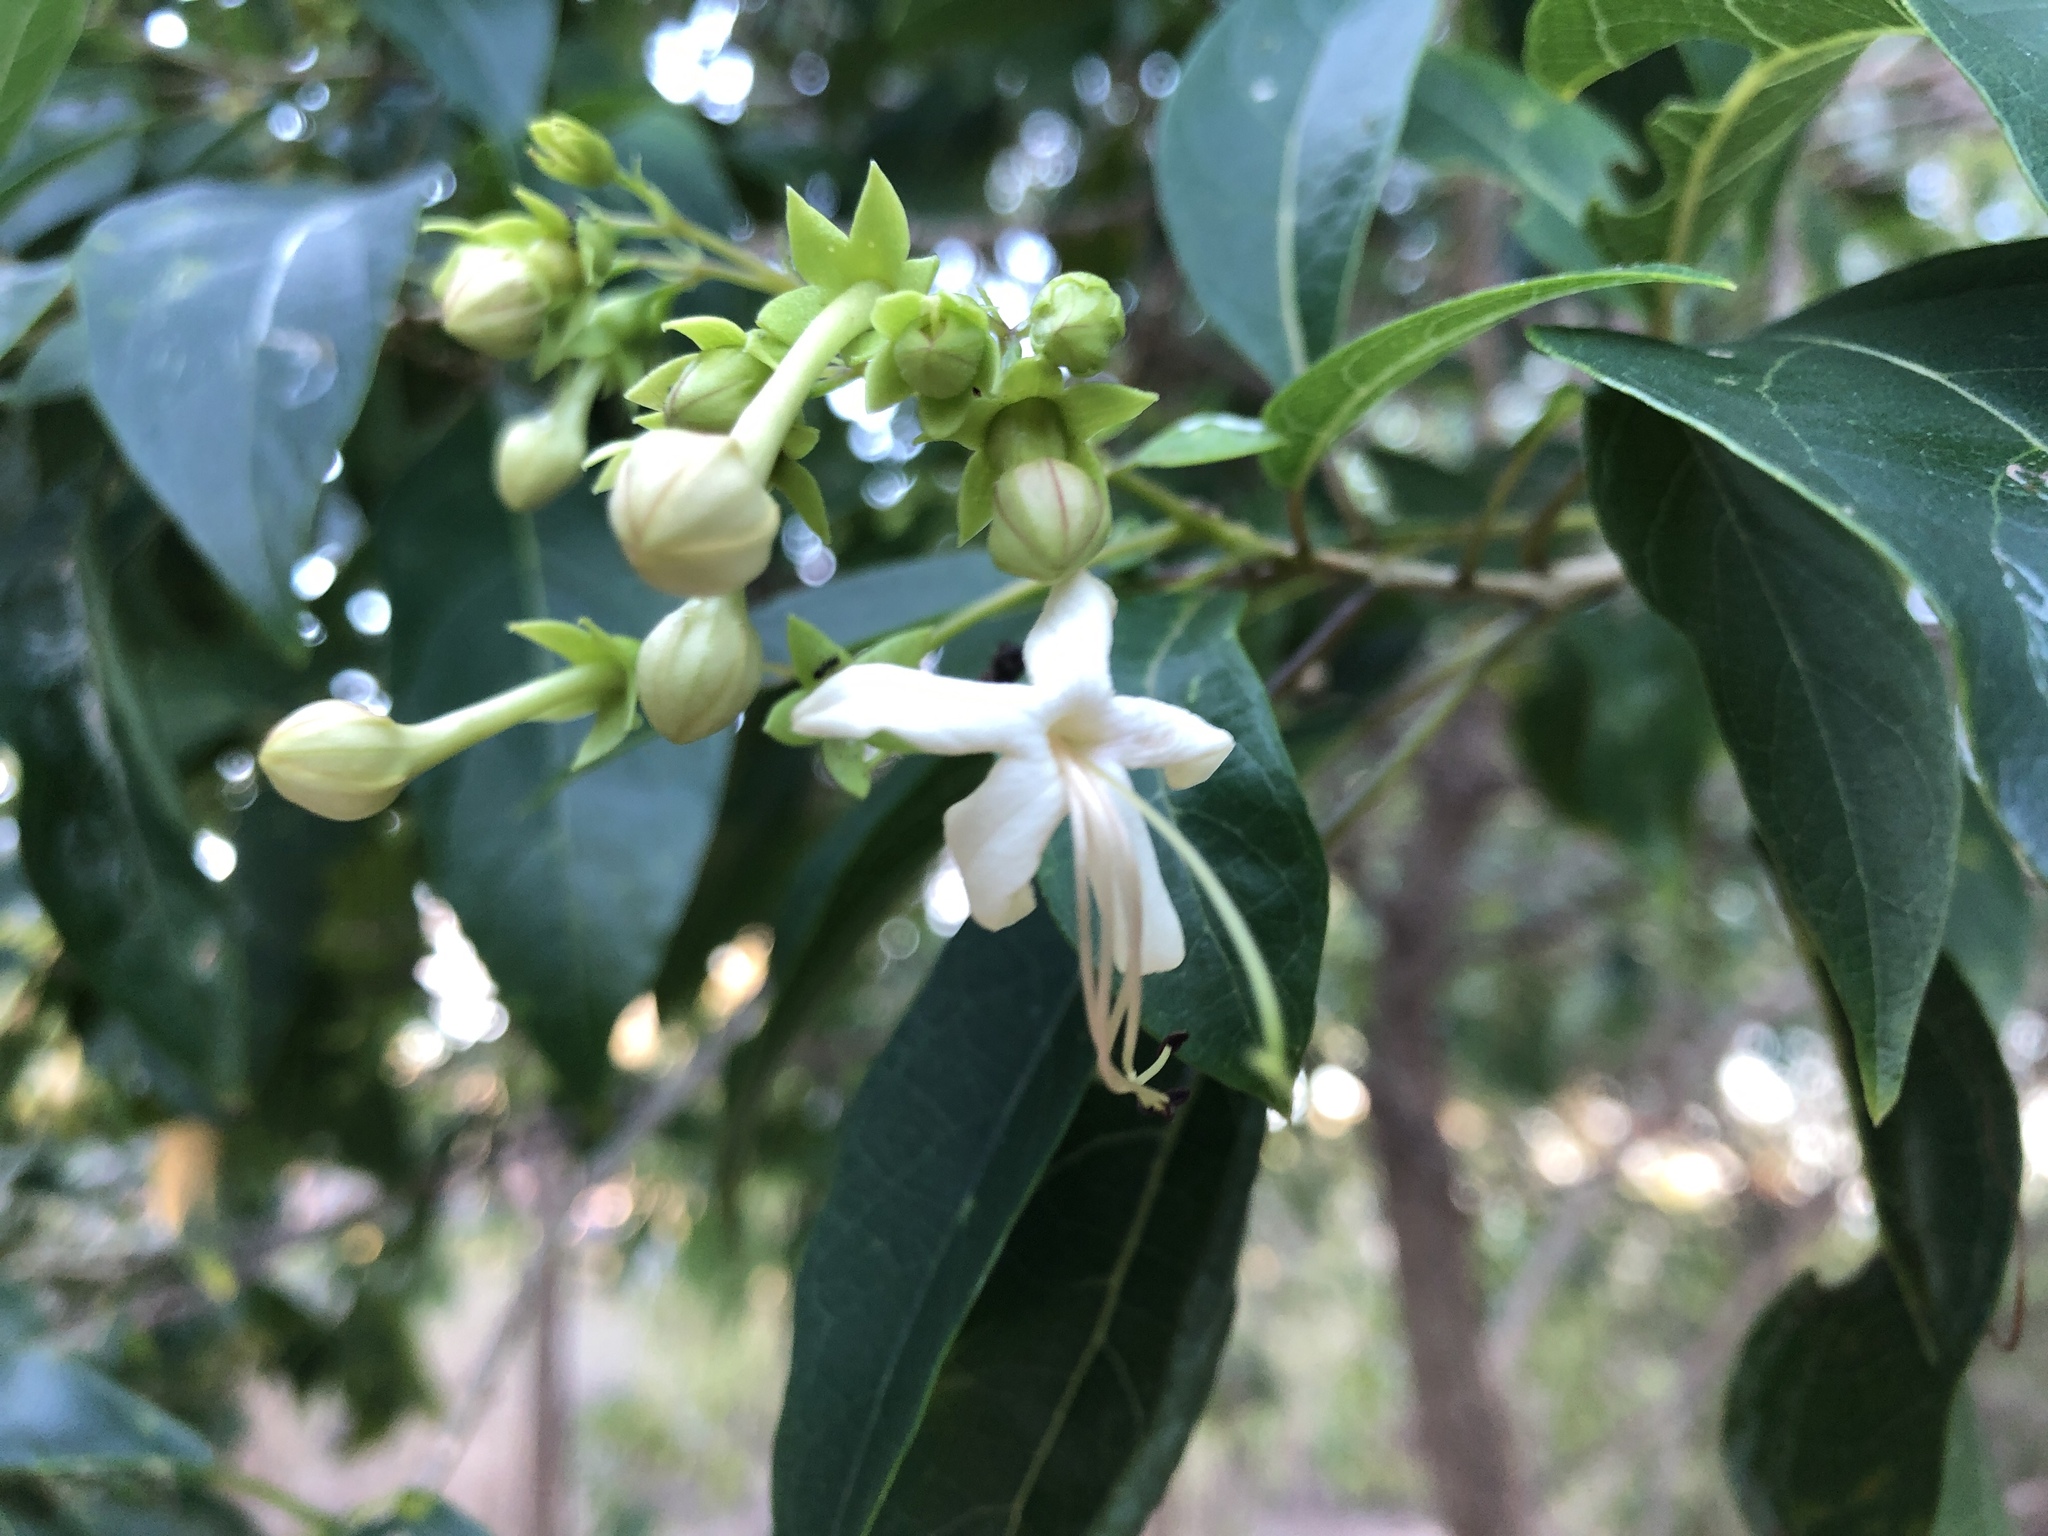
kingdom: Plantae
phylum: Tracheophyta
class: Magnoliopsida
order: Lamiales
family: Lamiaceae
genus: Clerodendrum
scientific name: Clerodendrum floribundum
